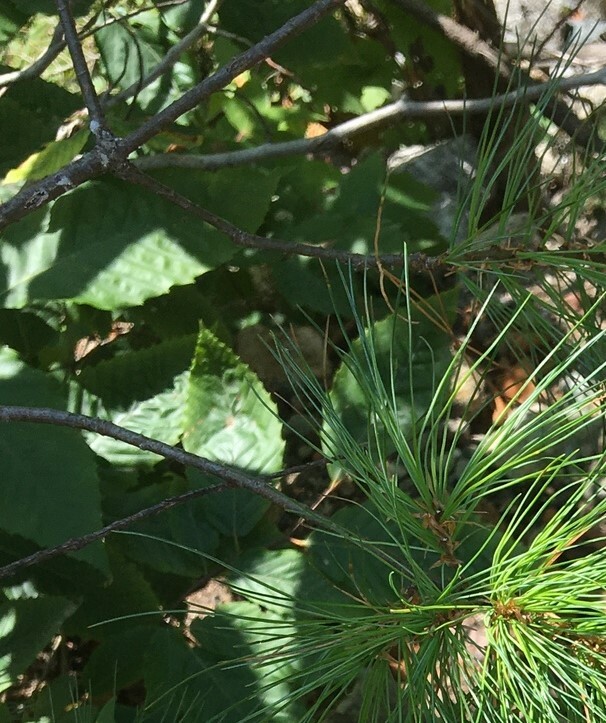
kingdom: Plantae
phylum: Tracheophyta
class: Magnoliopsida
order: Fagales
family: Fagaceae
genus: Fagus
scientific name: Fagus grandifolia
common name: American beech
